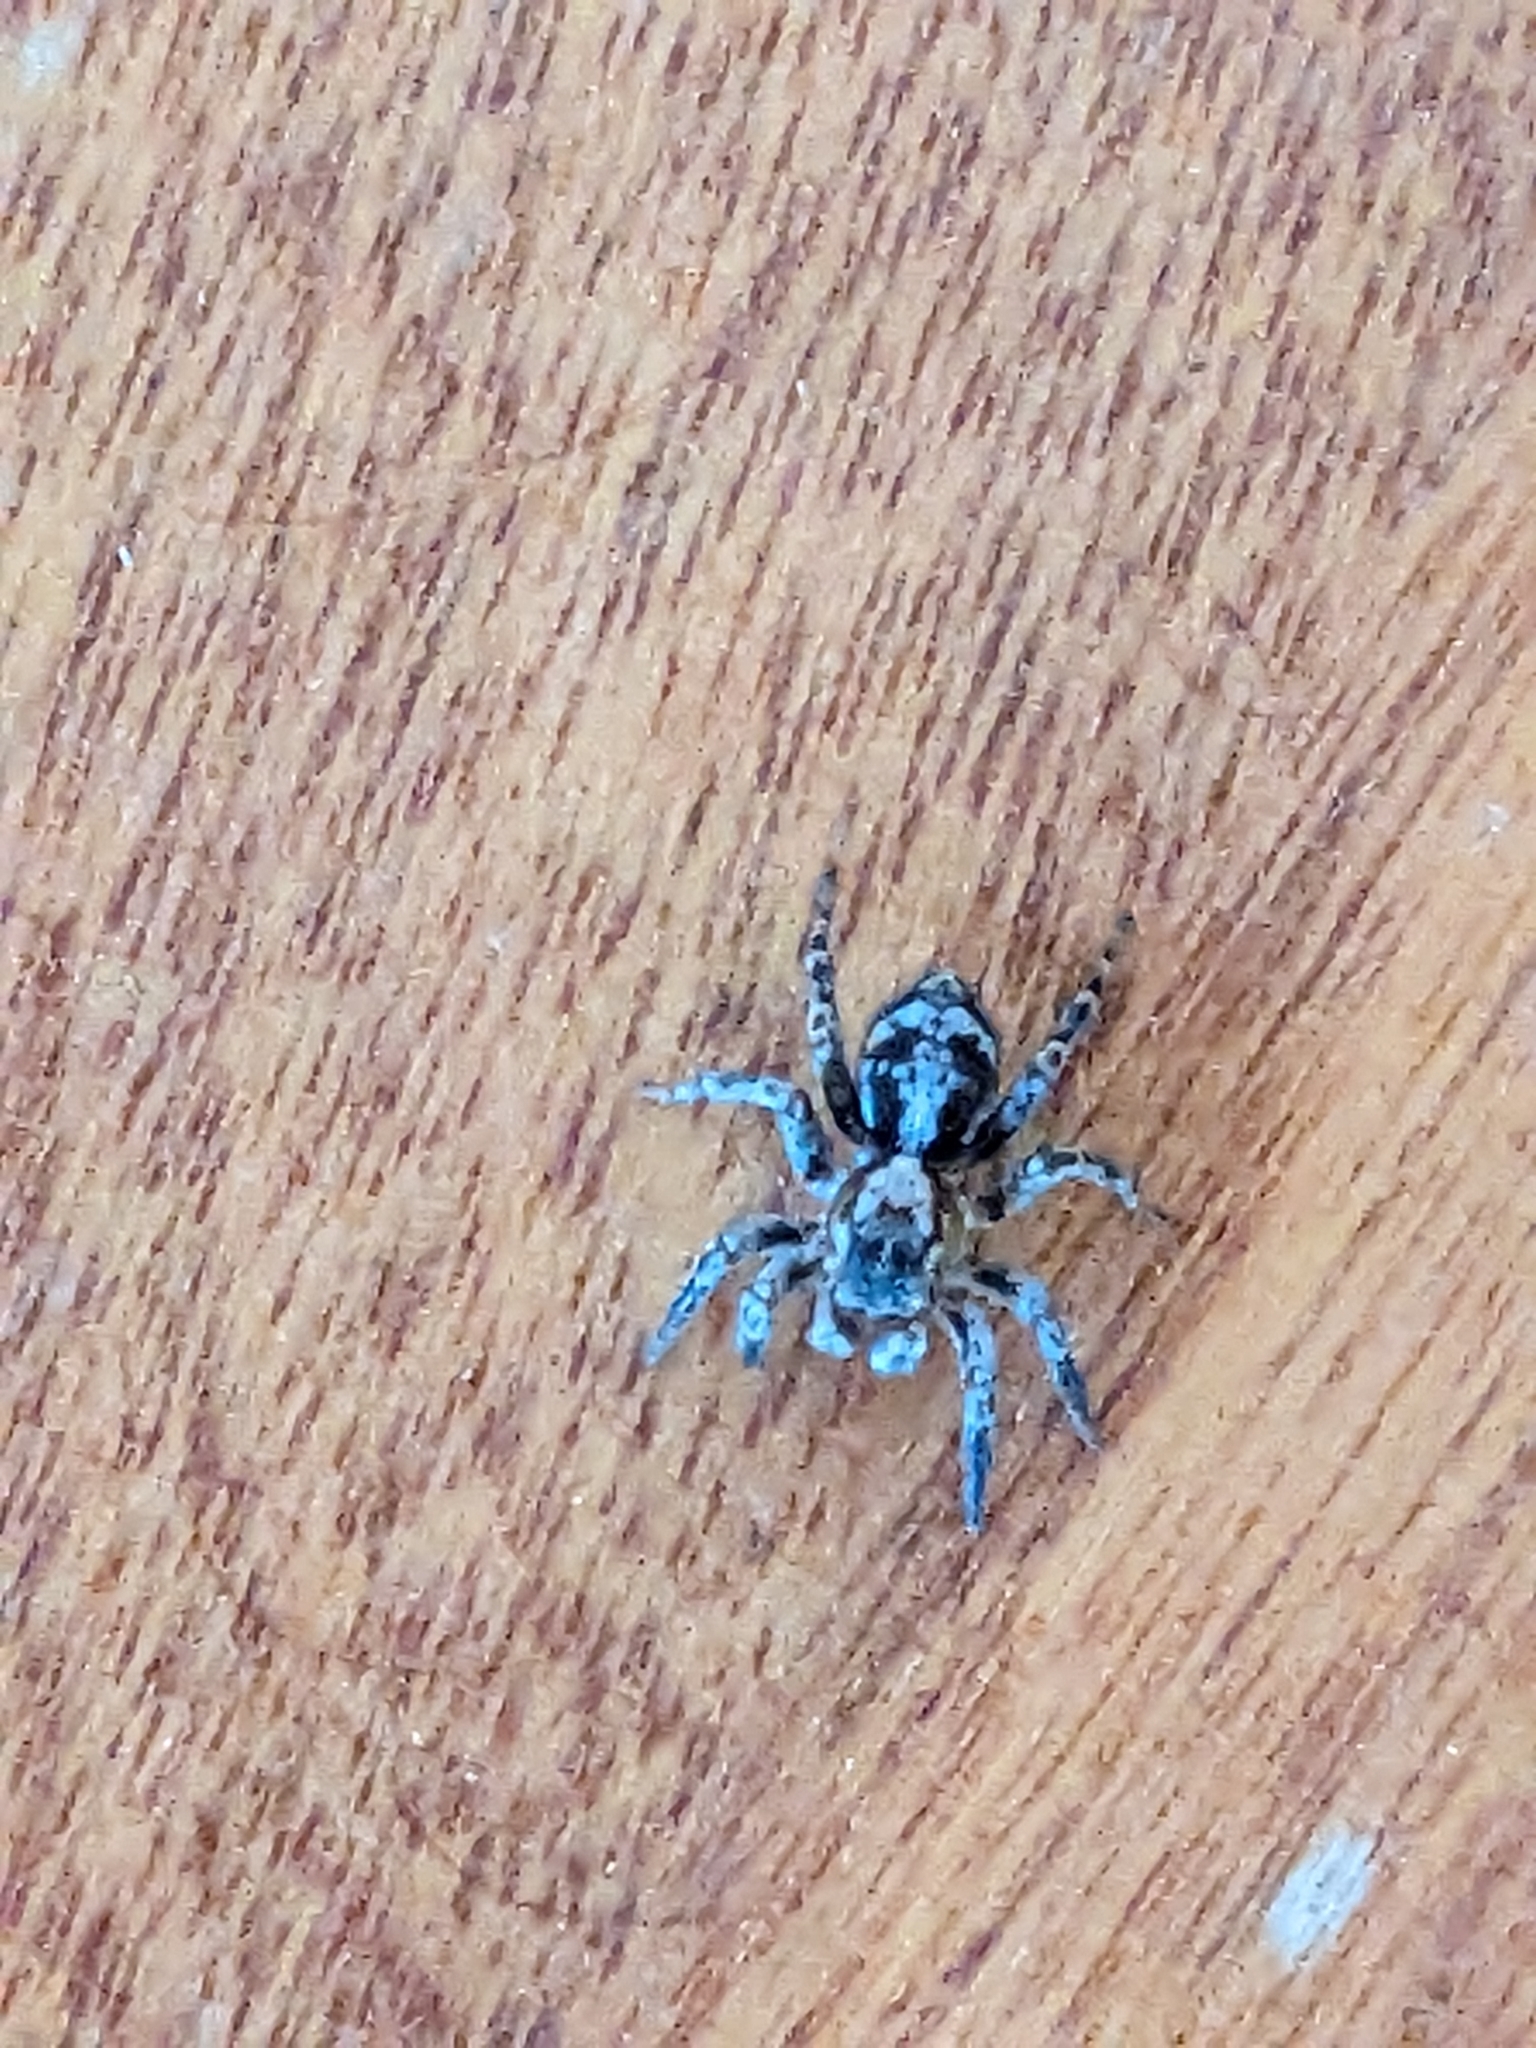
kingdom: Animalia
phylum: Arthropoda
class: Arachnida
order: Araneae
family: Salticidae
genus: Naphrys
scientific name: Naphrys pulex
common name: Flea jumping spider
